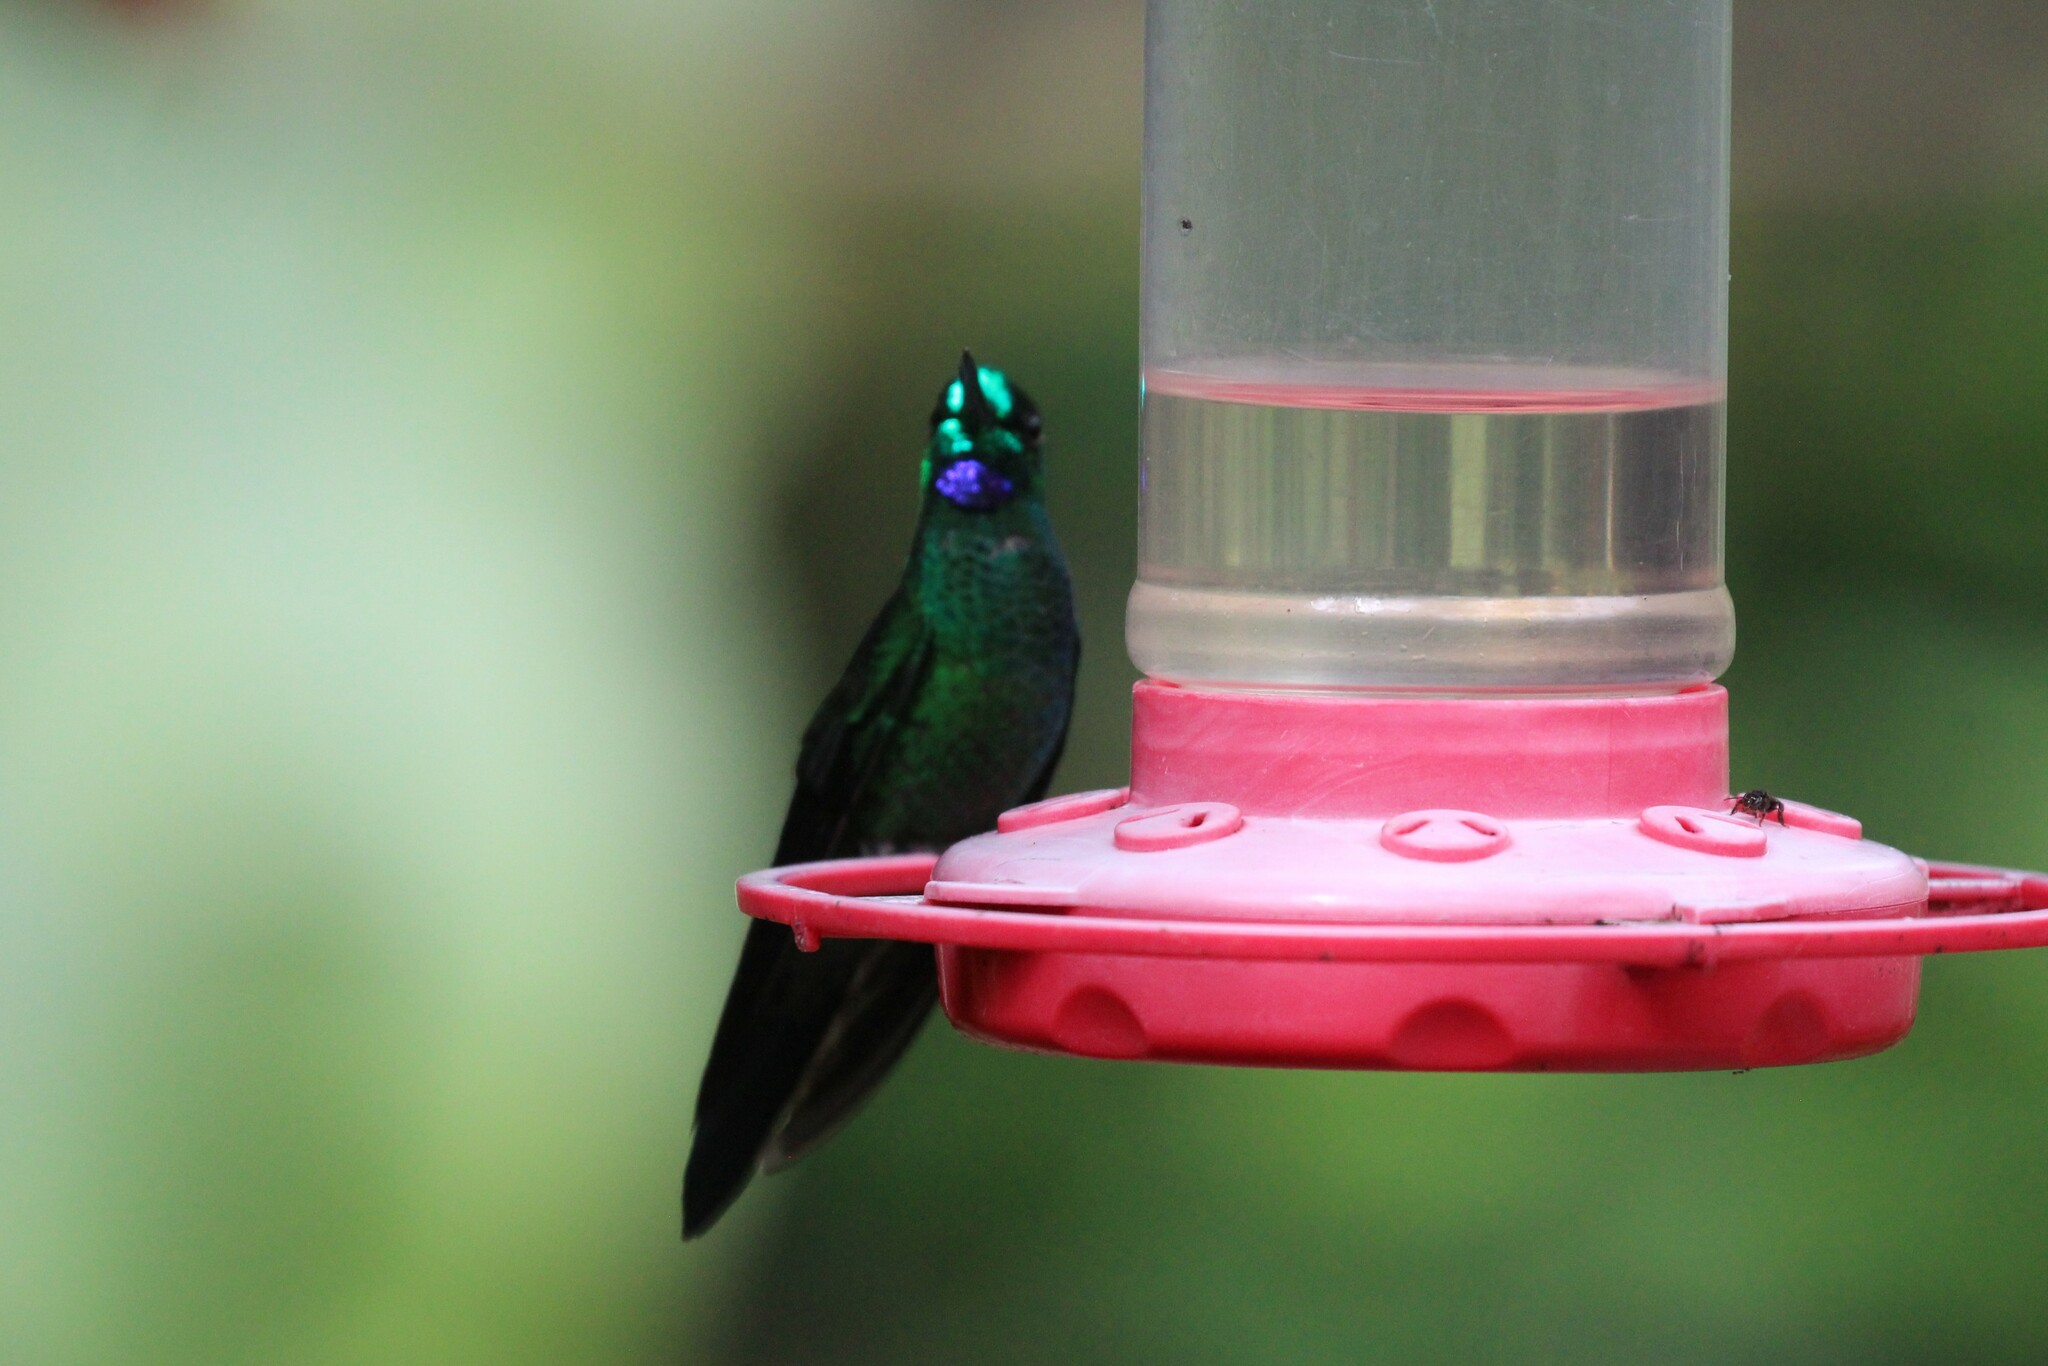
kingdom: Animalia
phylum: Chordata
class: Aves
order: Apodiformes
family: Trochilidae
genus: Heliodoxa
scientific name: Heliodoxa jacula
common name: Green-crowned brilliant
